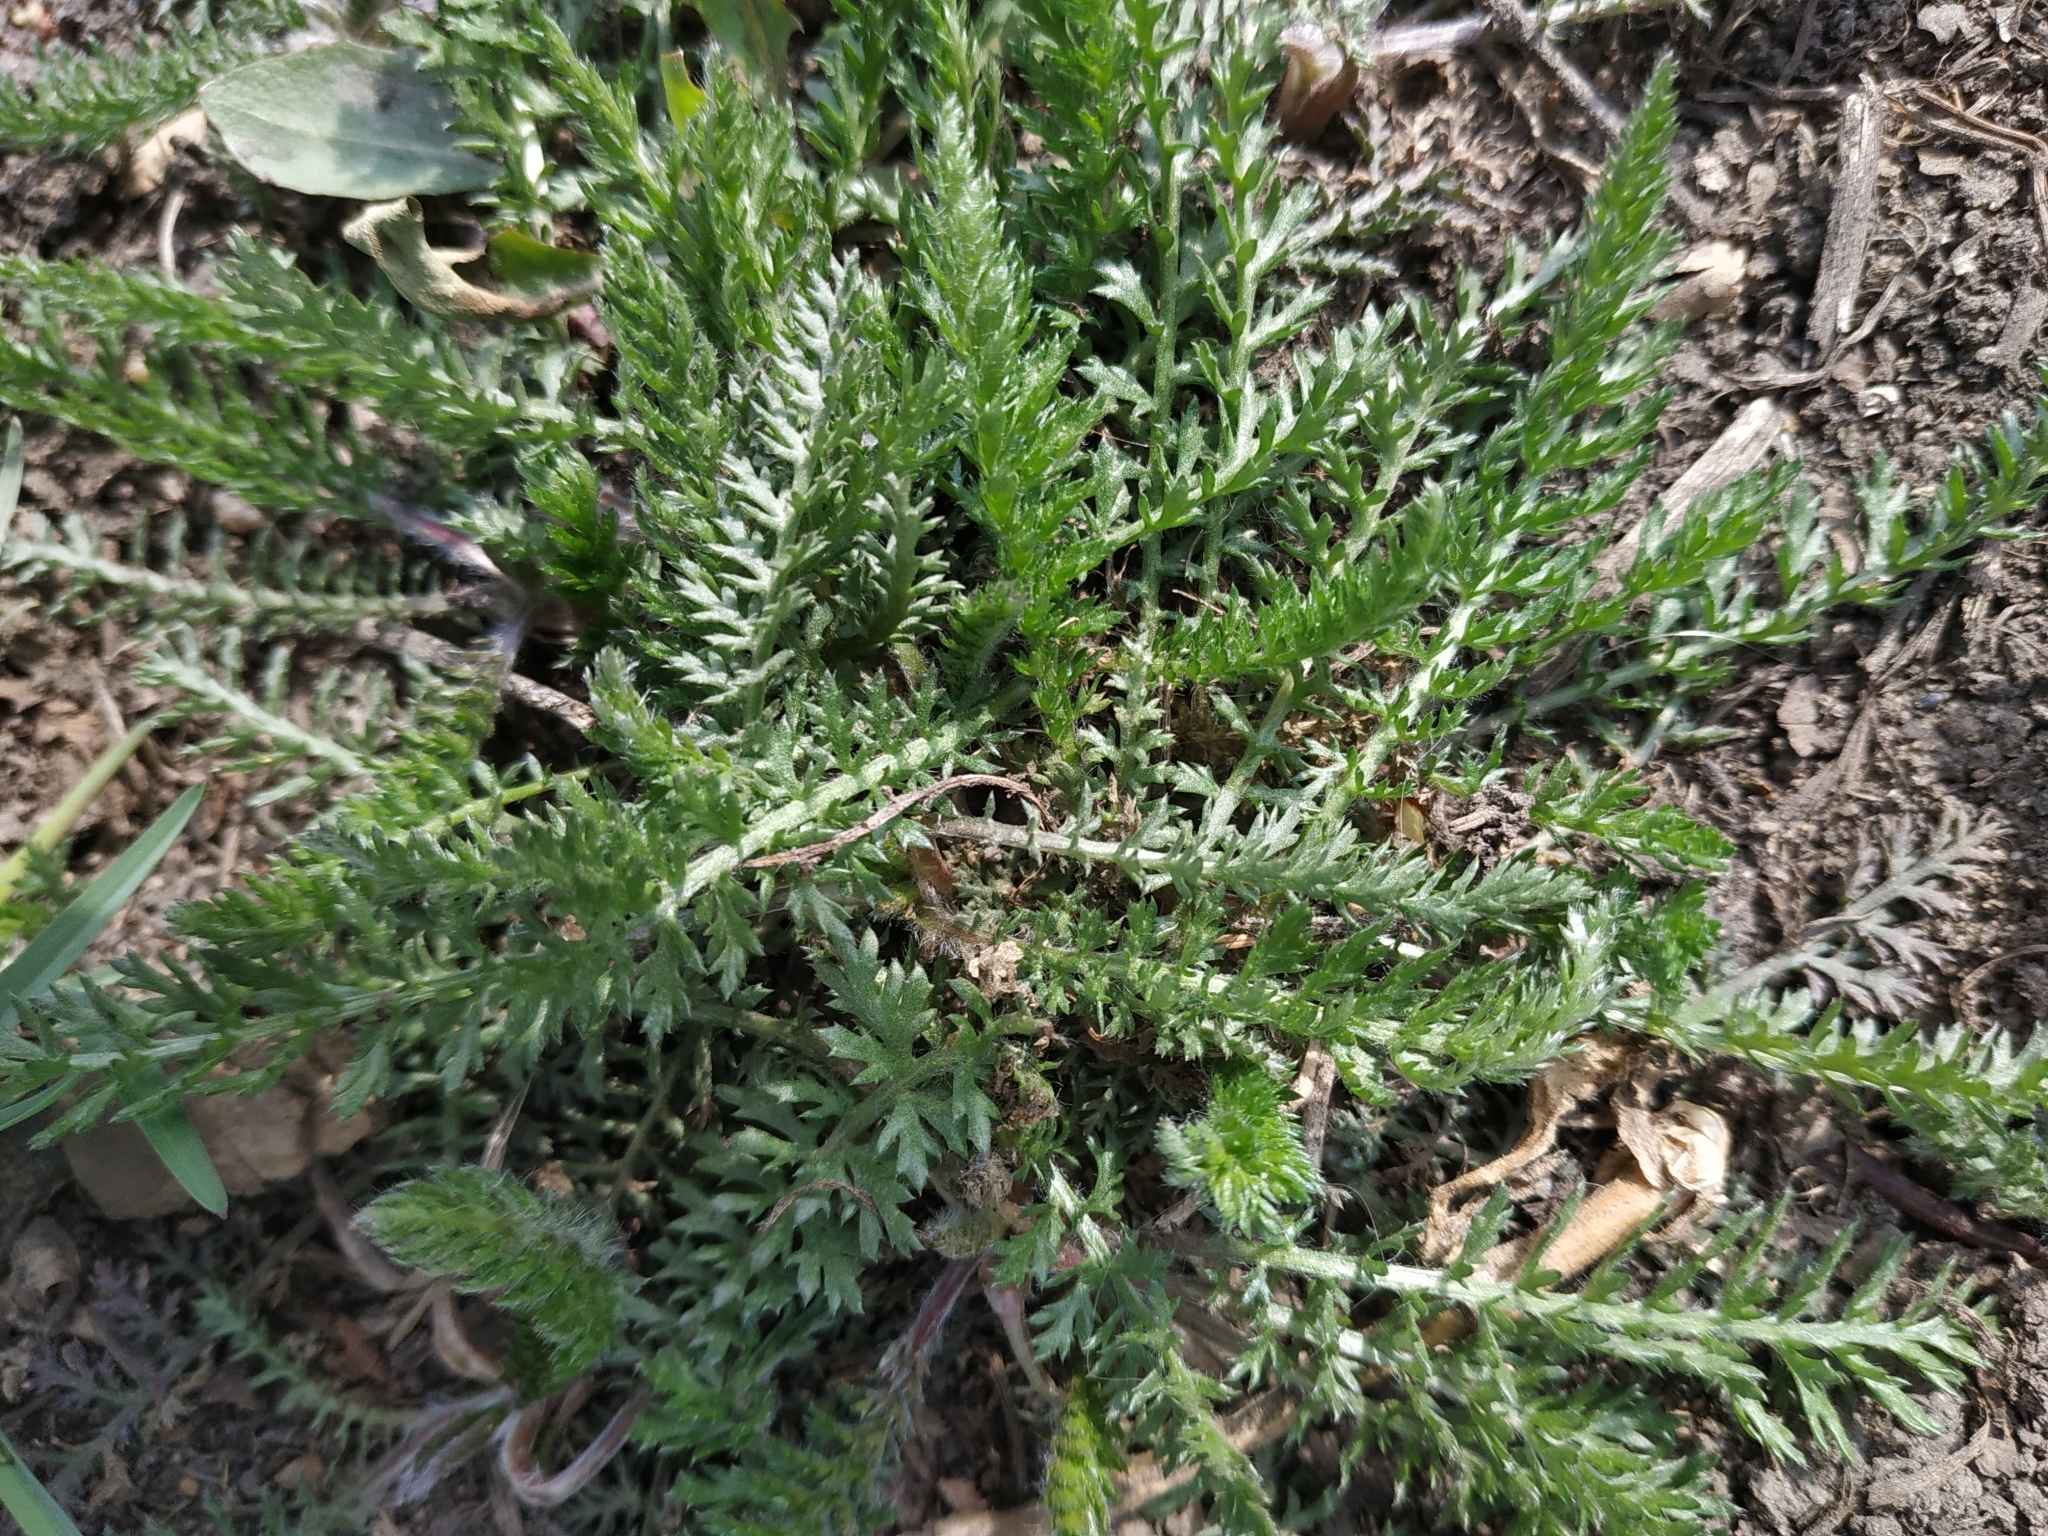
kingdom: Plantae
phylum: Tracheophyta
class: Magnoliopsida
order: Asterales
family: Asteraceae
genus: Achillea
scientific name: Achillea millefolium
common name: Yarrow
